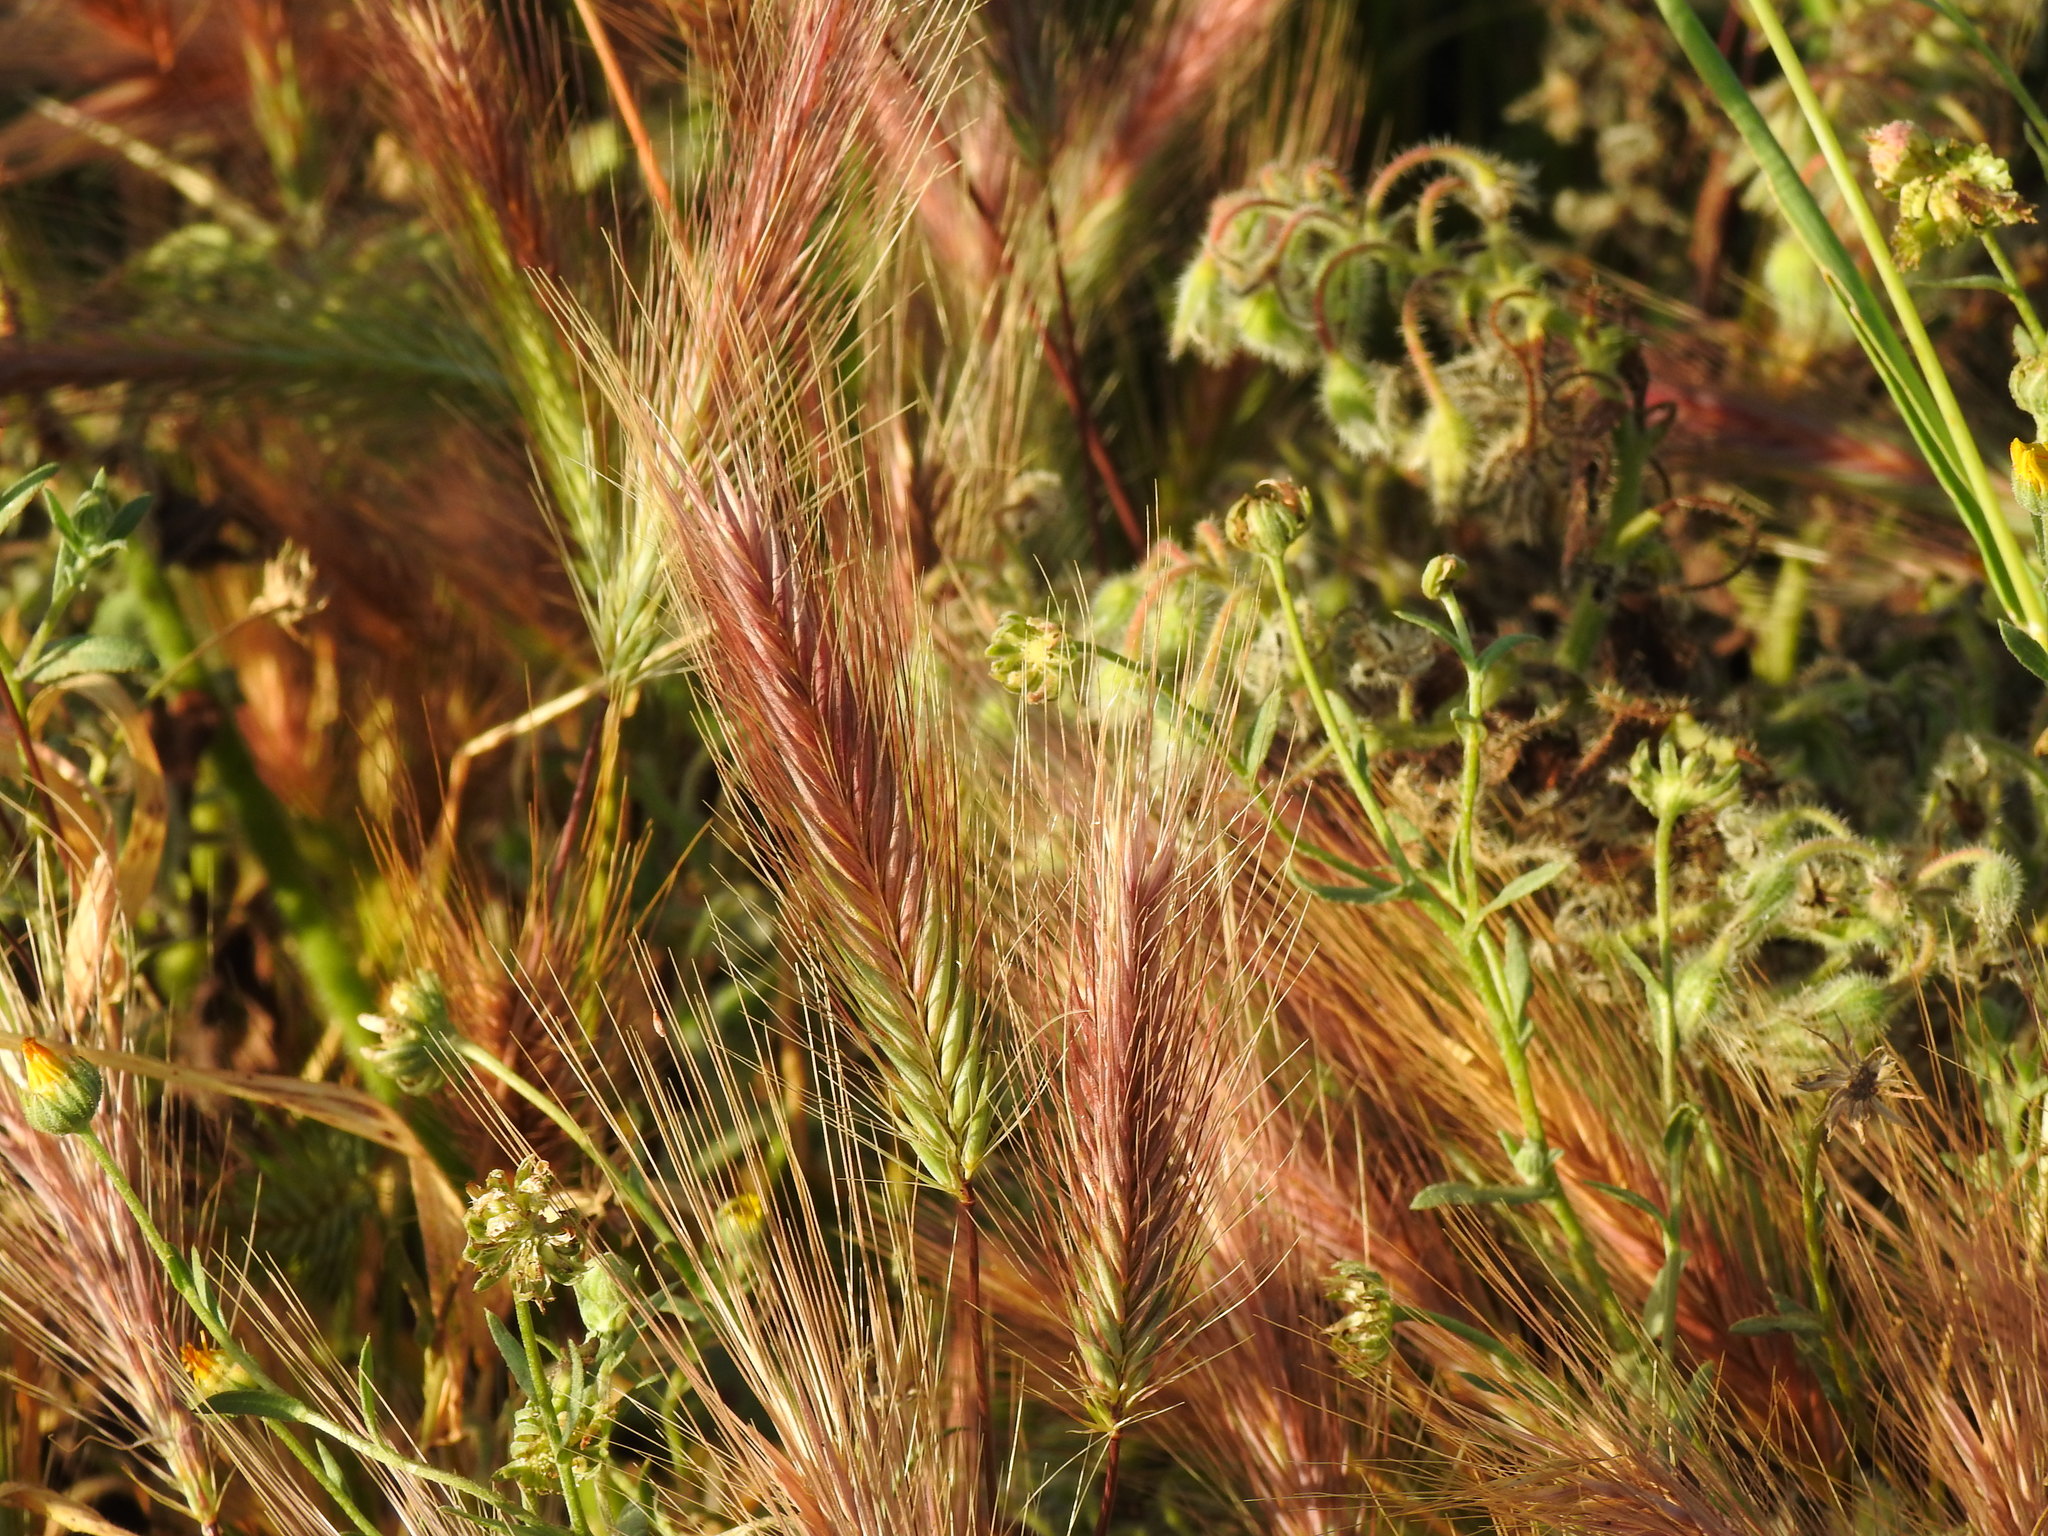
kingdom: Plantae
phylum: Tracheophyta
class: Liliopsida
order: Poales
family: Poaceae
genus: Hordeum
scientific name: Hordeum murinum
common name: Wall barley
